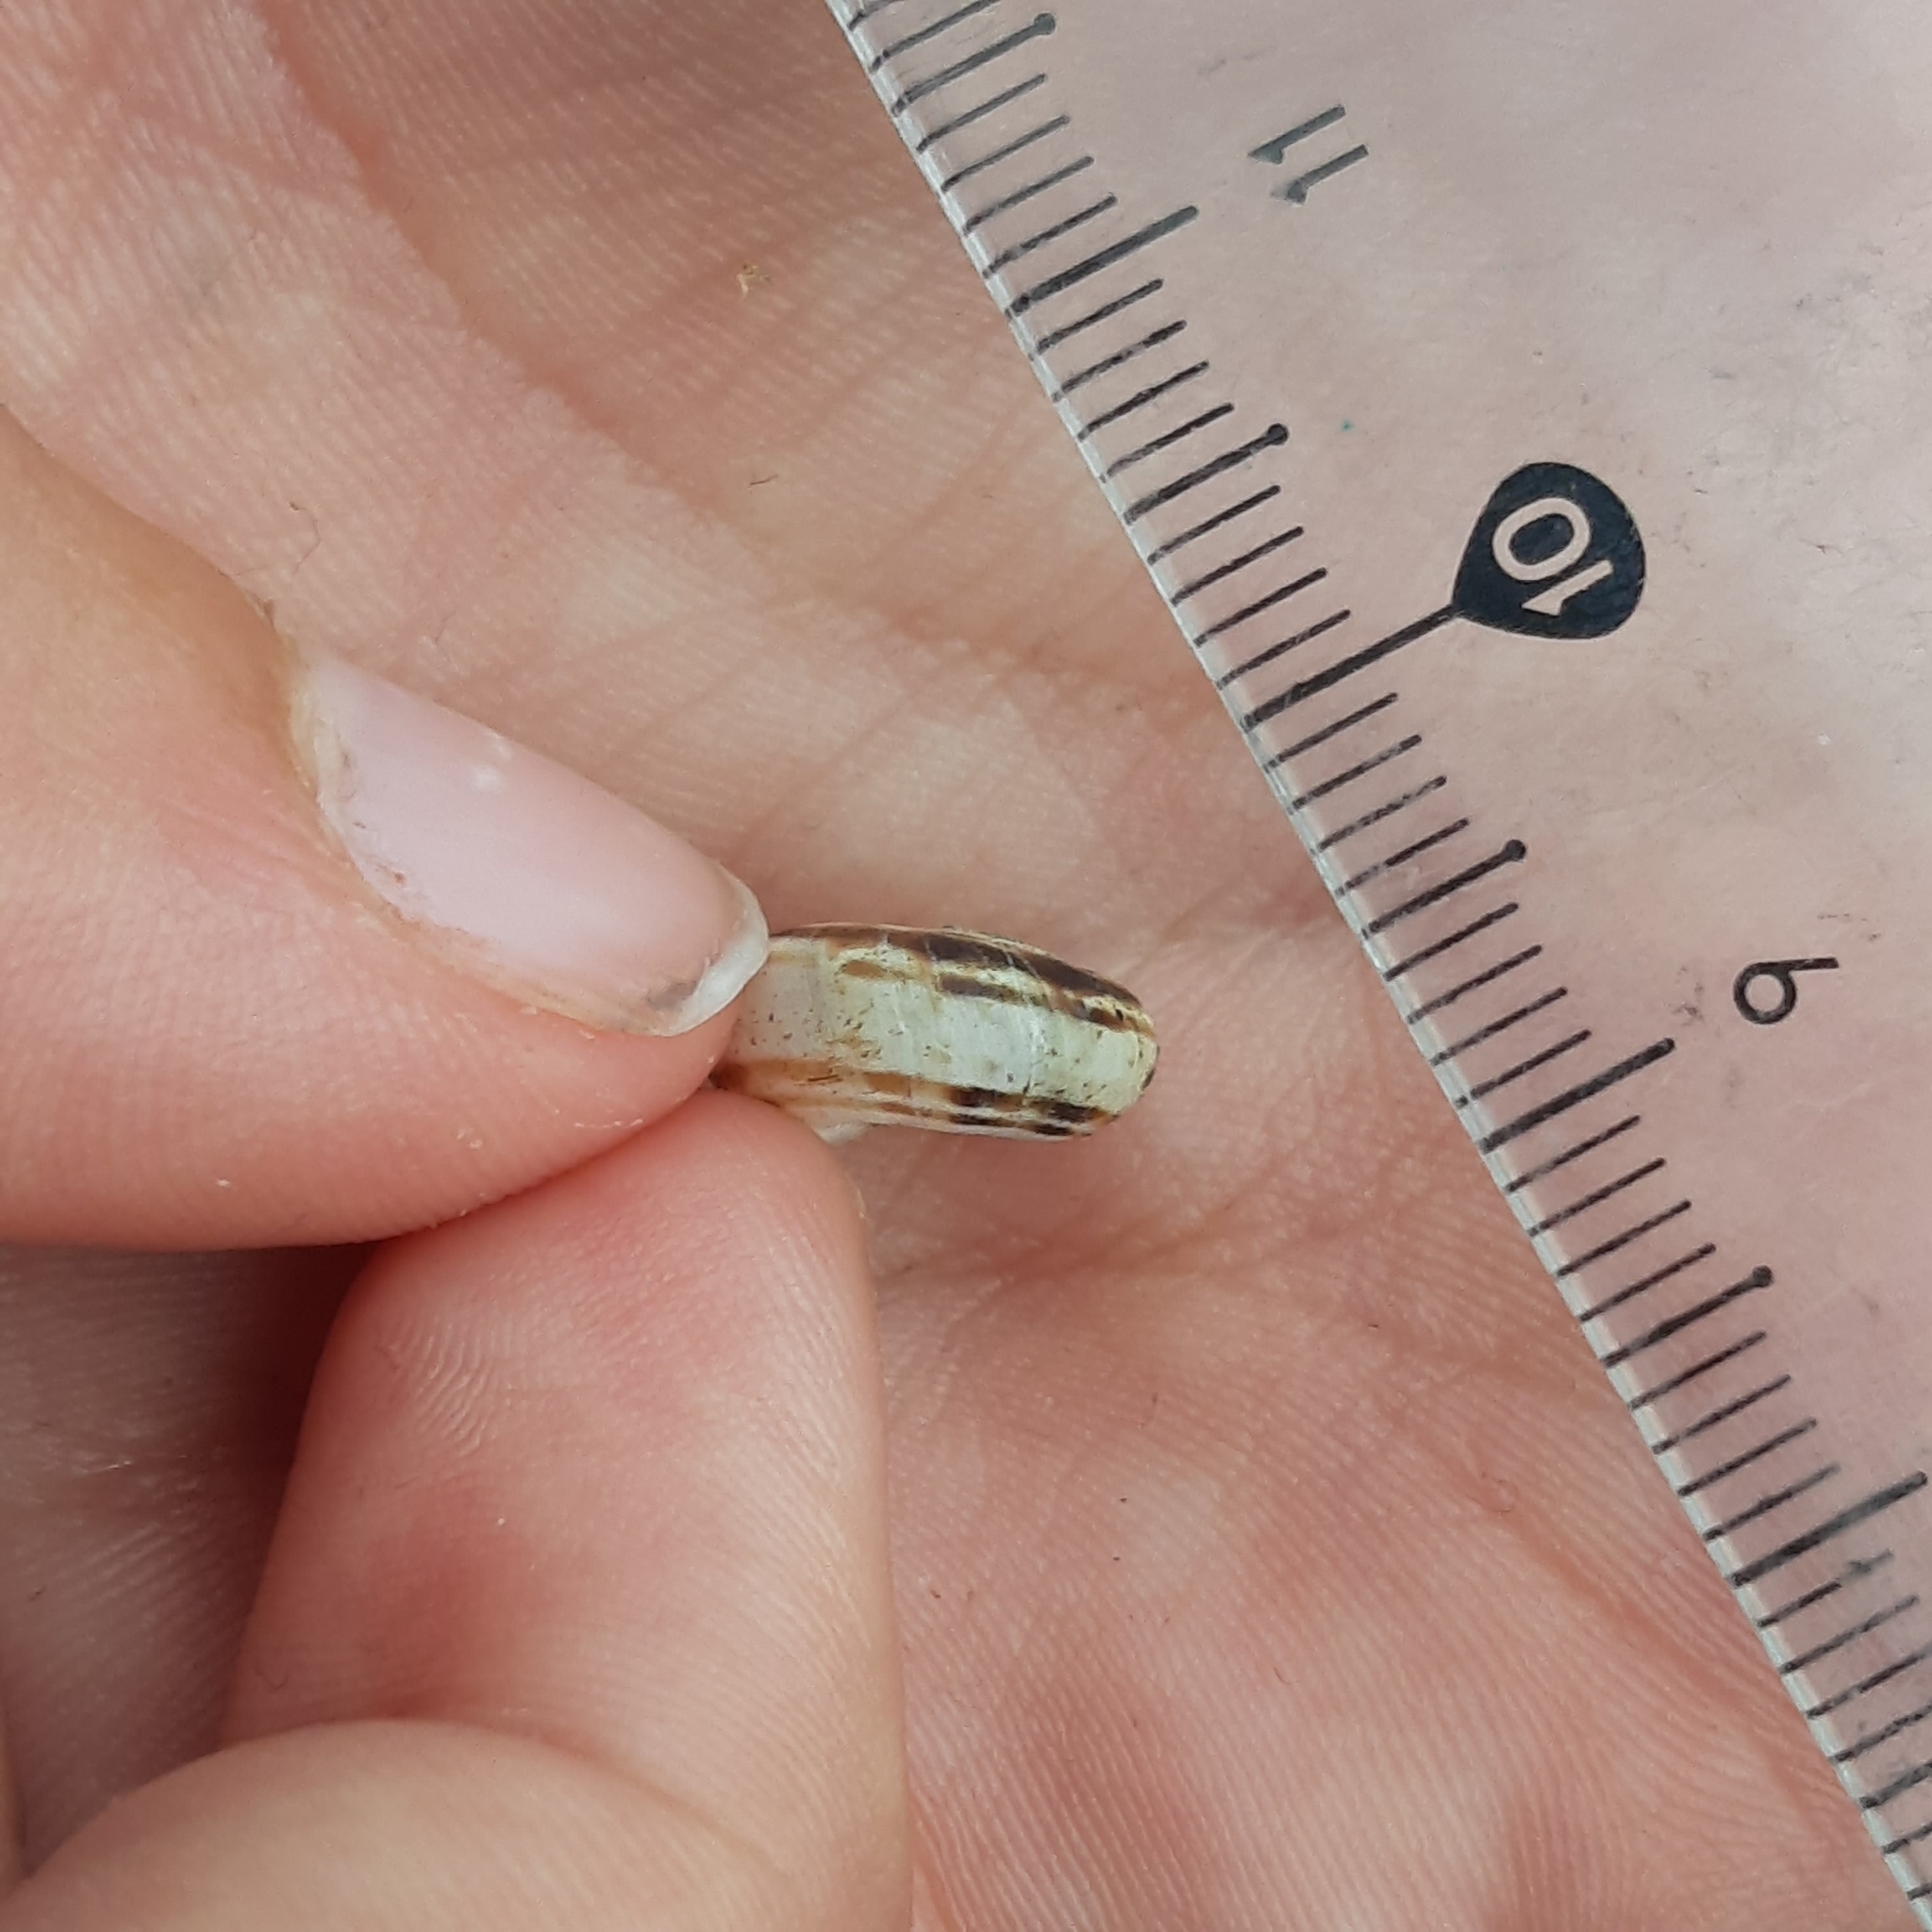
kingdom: Animalia
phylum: Mollusca
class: Gastropoda
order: Stylommatophora
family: Geomitridae
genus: Xerolenta
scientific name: Xerolenta obvia
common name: White heath snail
